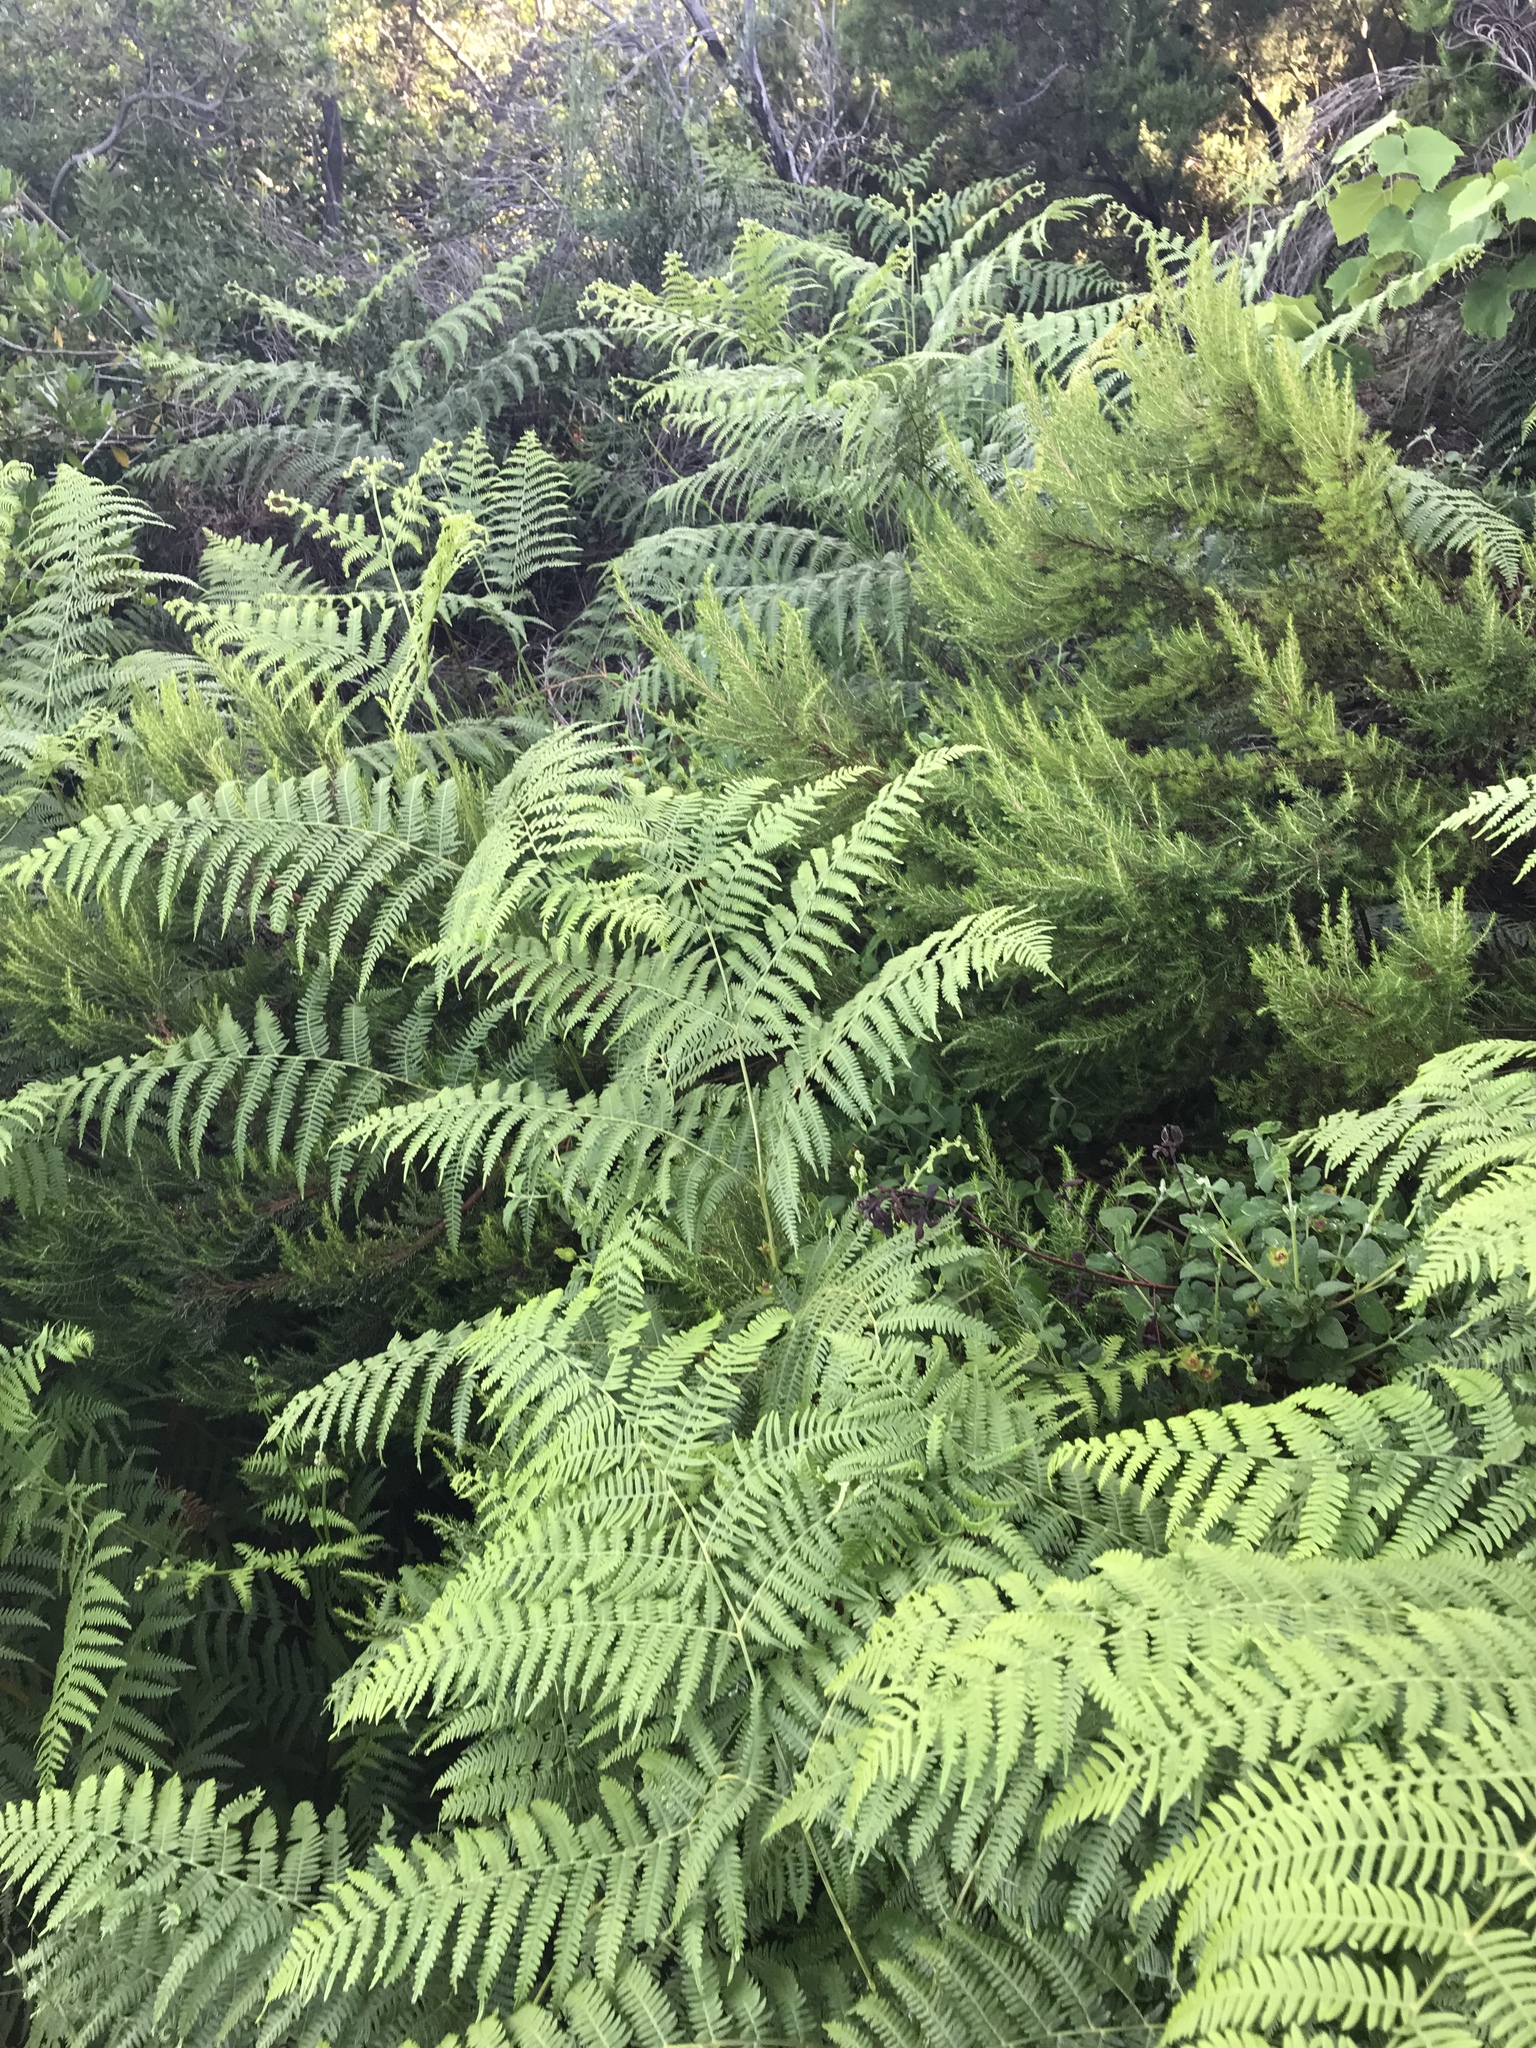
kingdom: Plantae
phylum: Tracheophyta
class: Polypodiopsida
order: Polypodiales
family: Dennstaedtiaceae
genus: Pteridium
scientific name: Pteridium aquilinum
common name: Bracken
